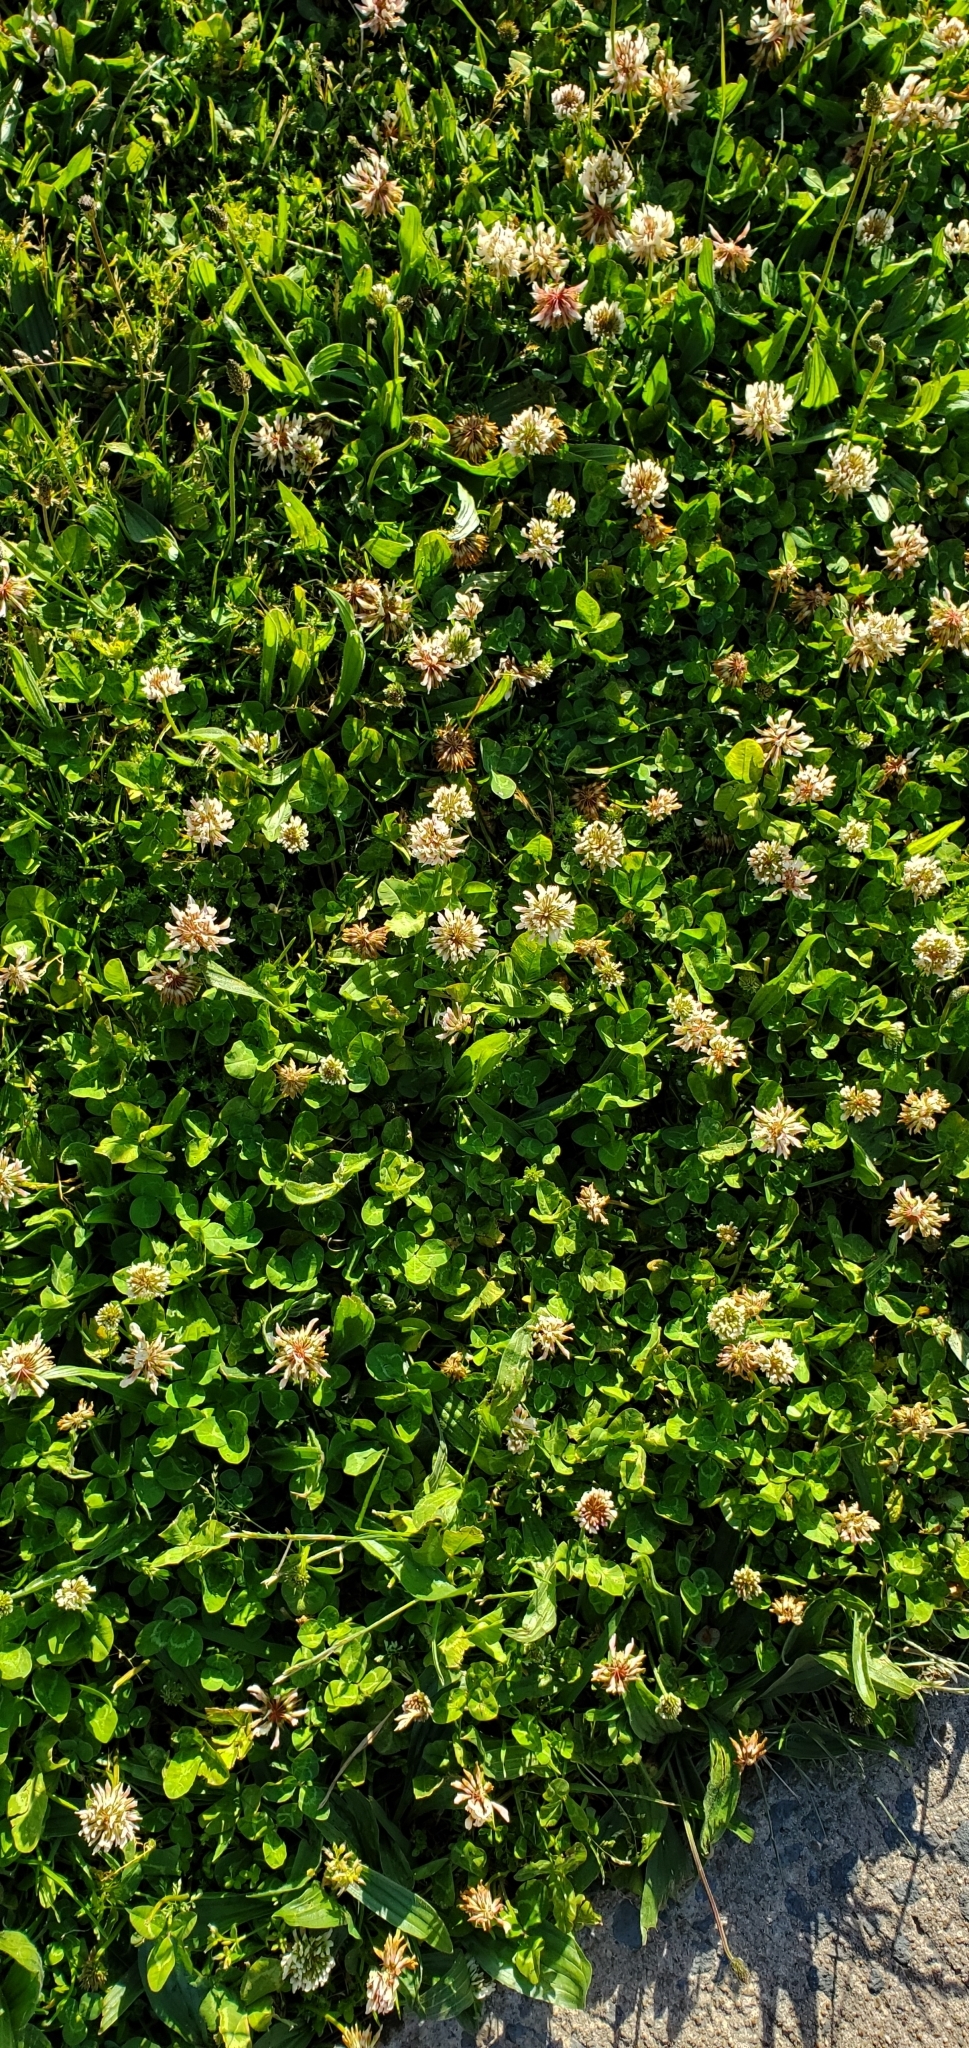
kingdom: Plantae
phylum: Tracheophyta
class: Magnoliopsida
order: Fabales
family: Fabaceae
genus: Trifolium
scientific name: Trifolium repens
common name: White clover
